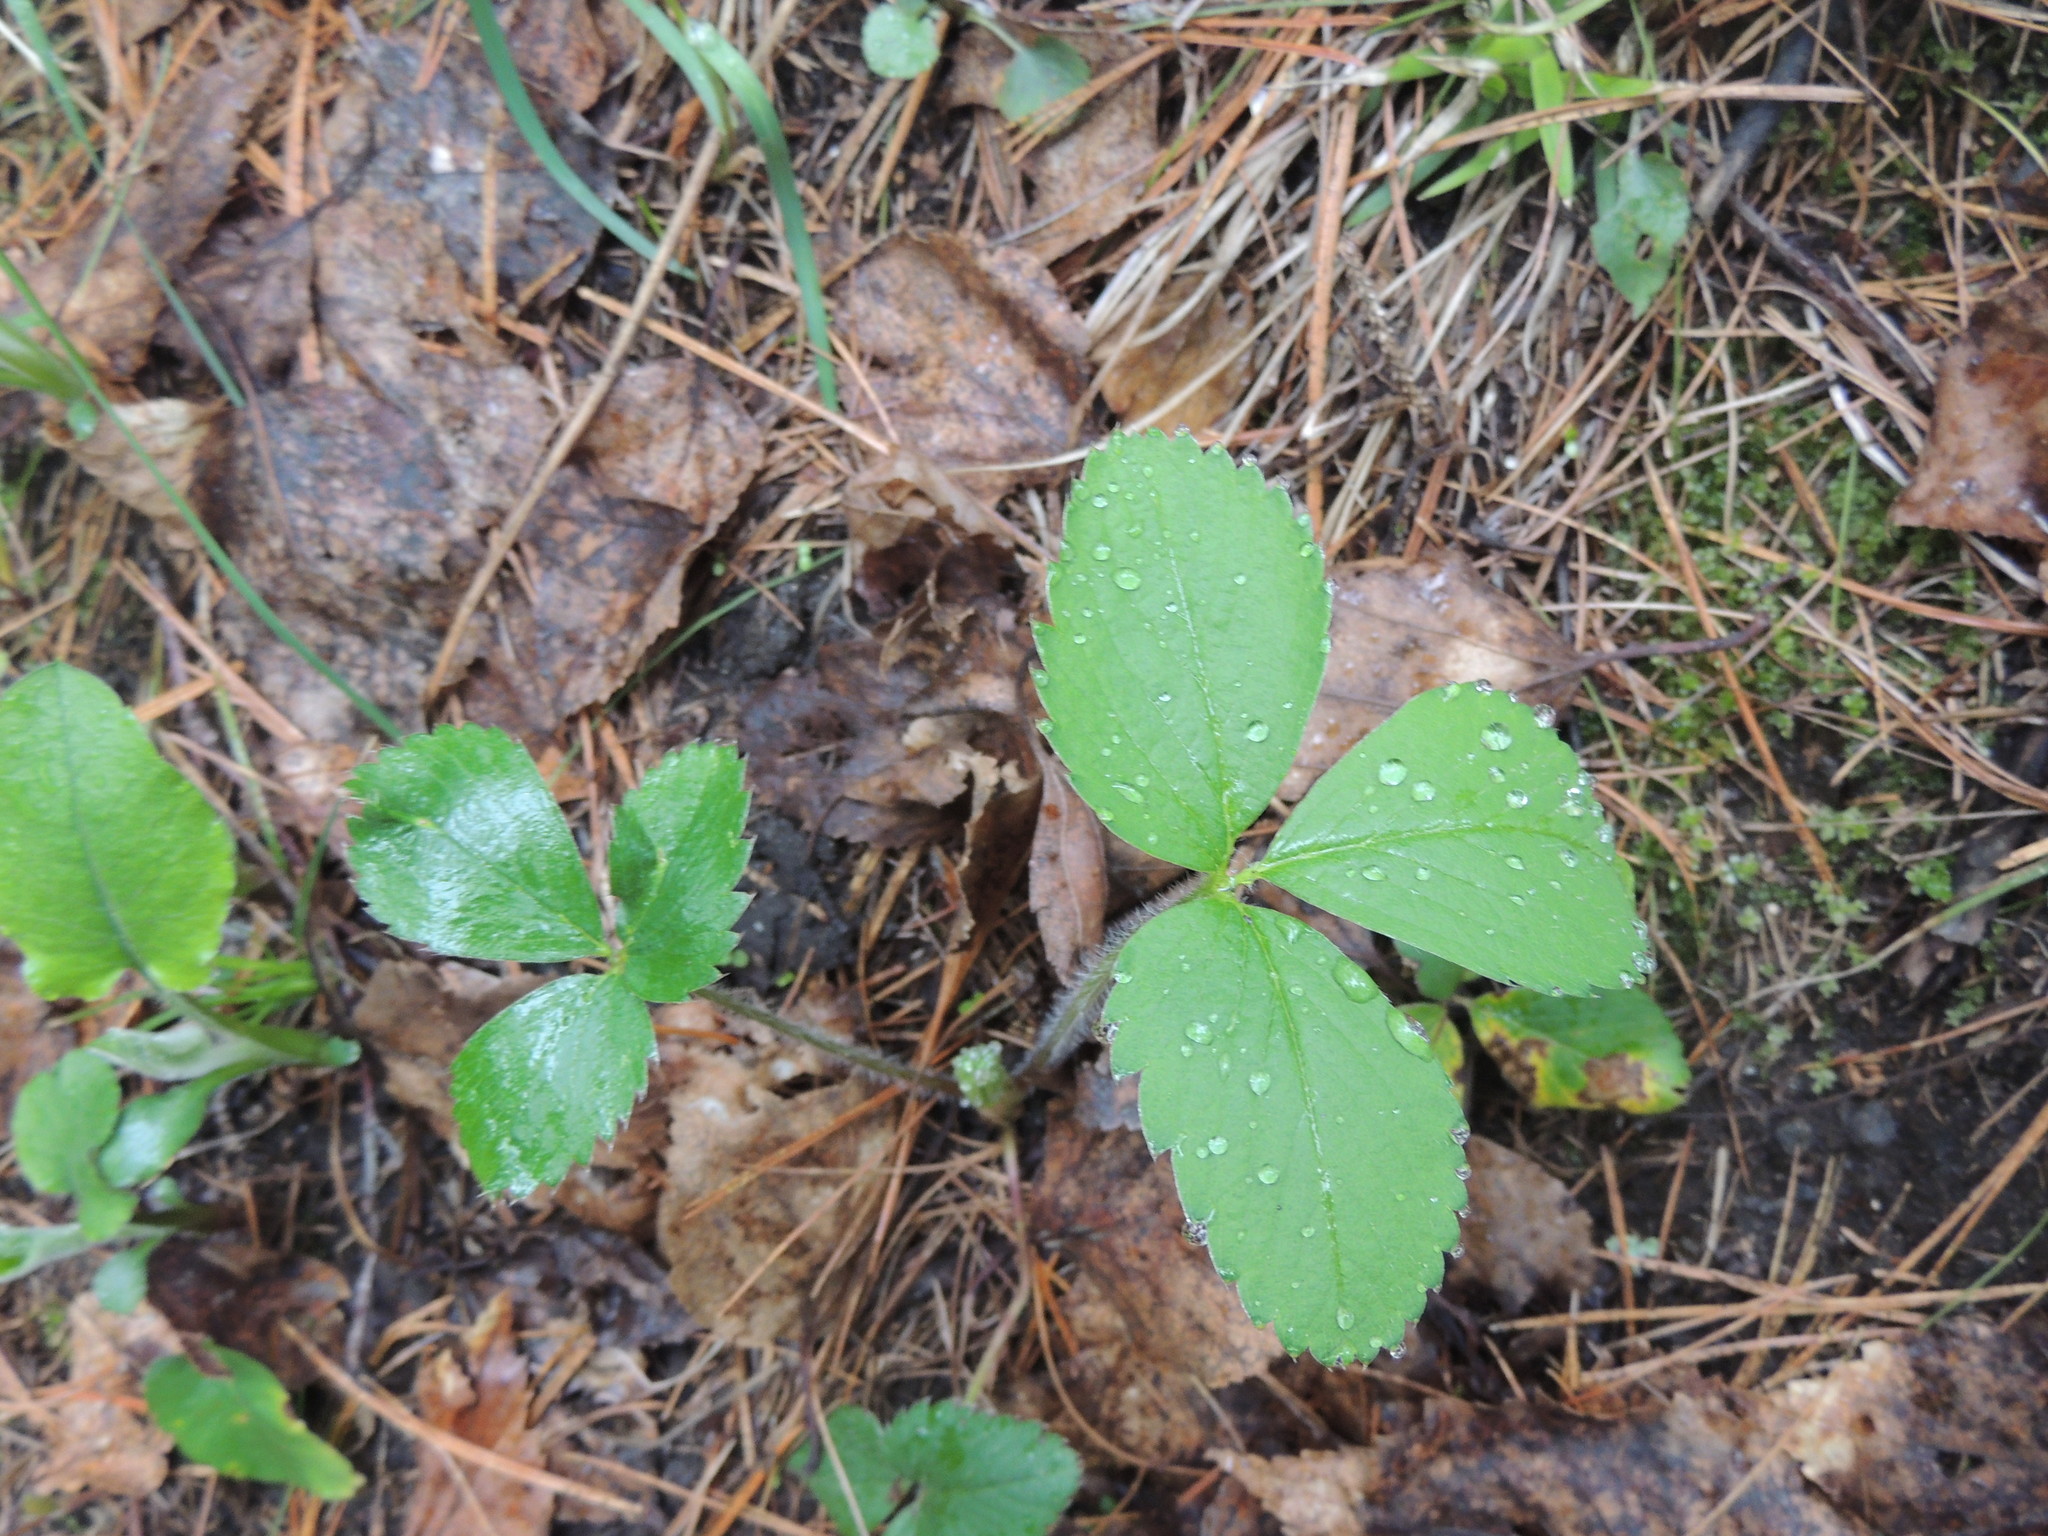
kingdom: Plantae
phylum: Tracheophyta
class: Magnoliopsida
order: Rosales
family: Rosaceae
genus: Fragaria
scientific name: Fragaria virginiana
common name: Thickleaved wild strawberry
